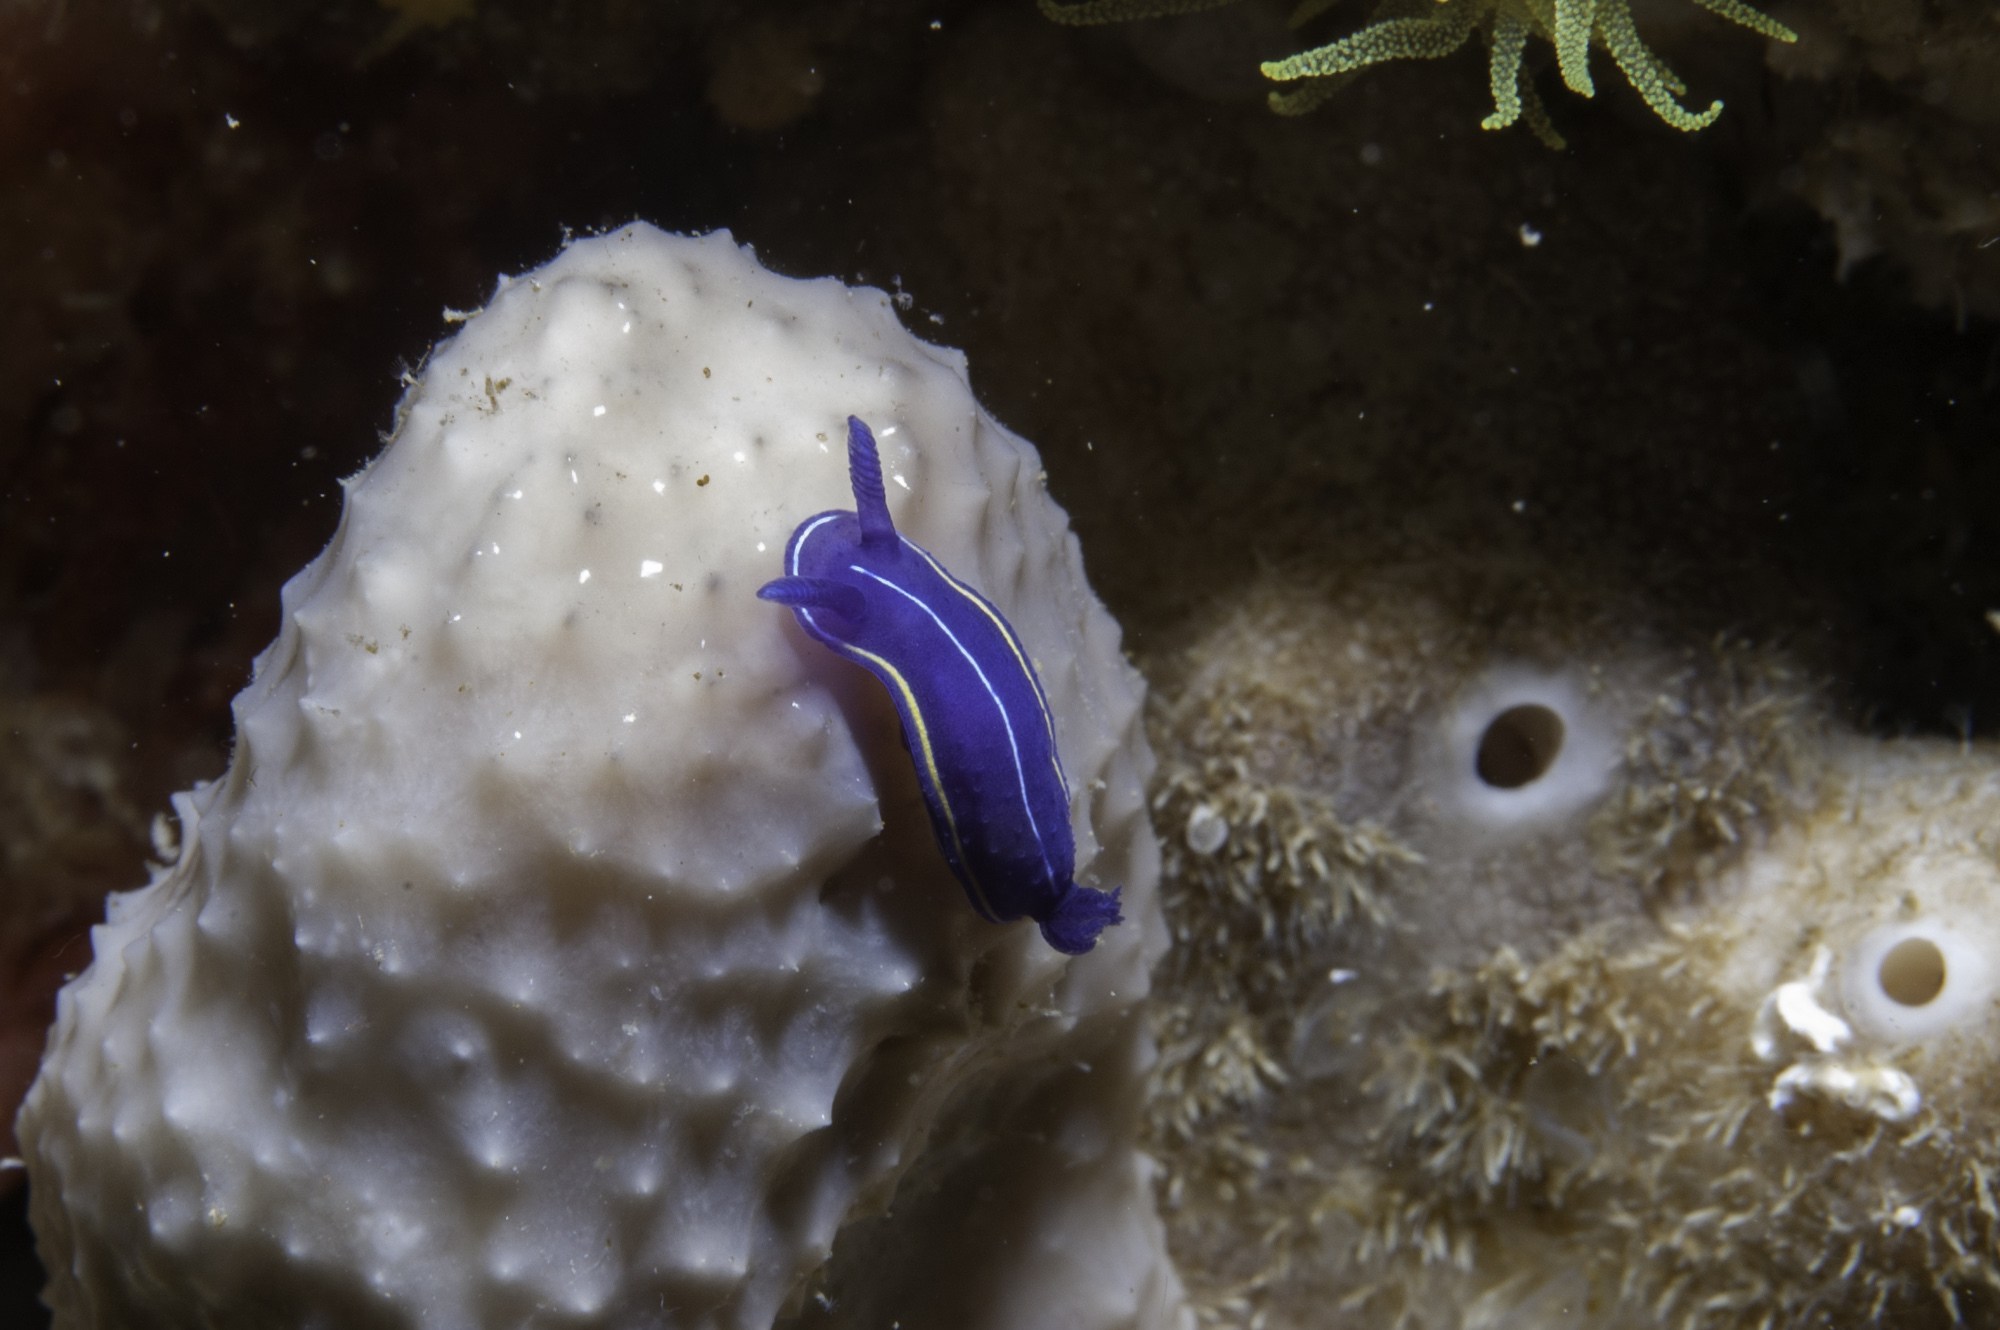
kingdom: Animalia
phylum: Mollusca
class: Gastropoda
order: Nudibranchia
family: Chromodorididae
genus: Felimare
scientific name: Felimare orsinii
